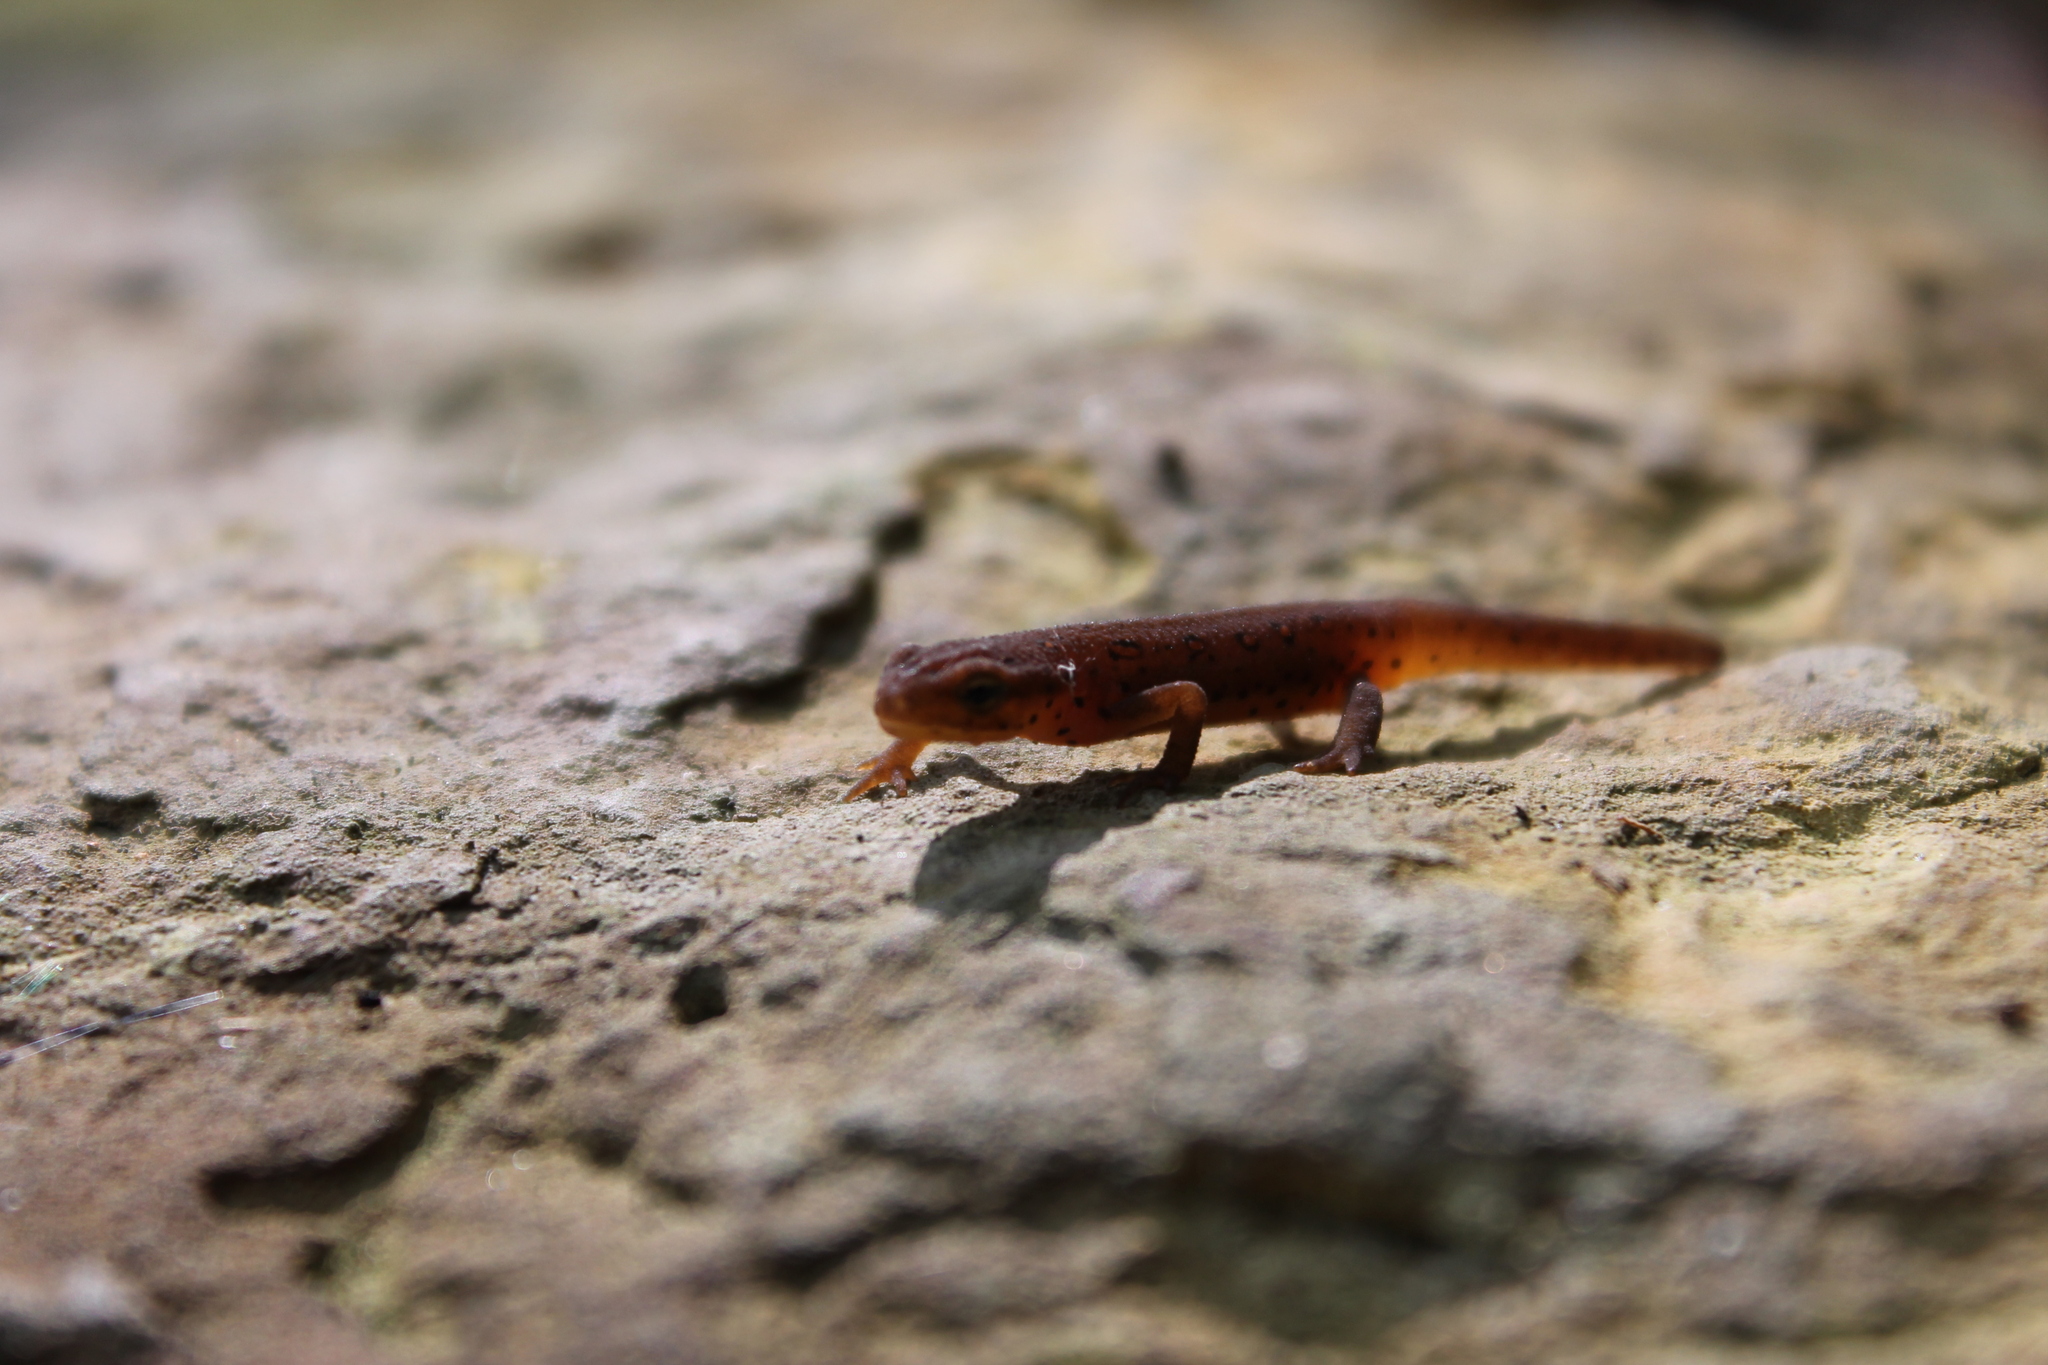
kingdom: Animalia
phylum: Chordata
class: Amphibia
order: Caudata
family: Salamandridae
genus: Notophthalmus
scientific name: Notophthalmus viridescens
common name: Eastern newt
